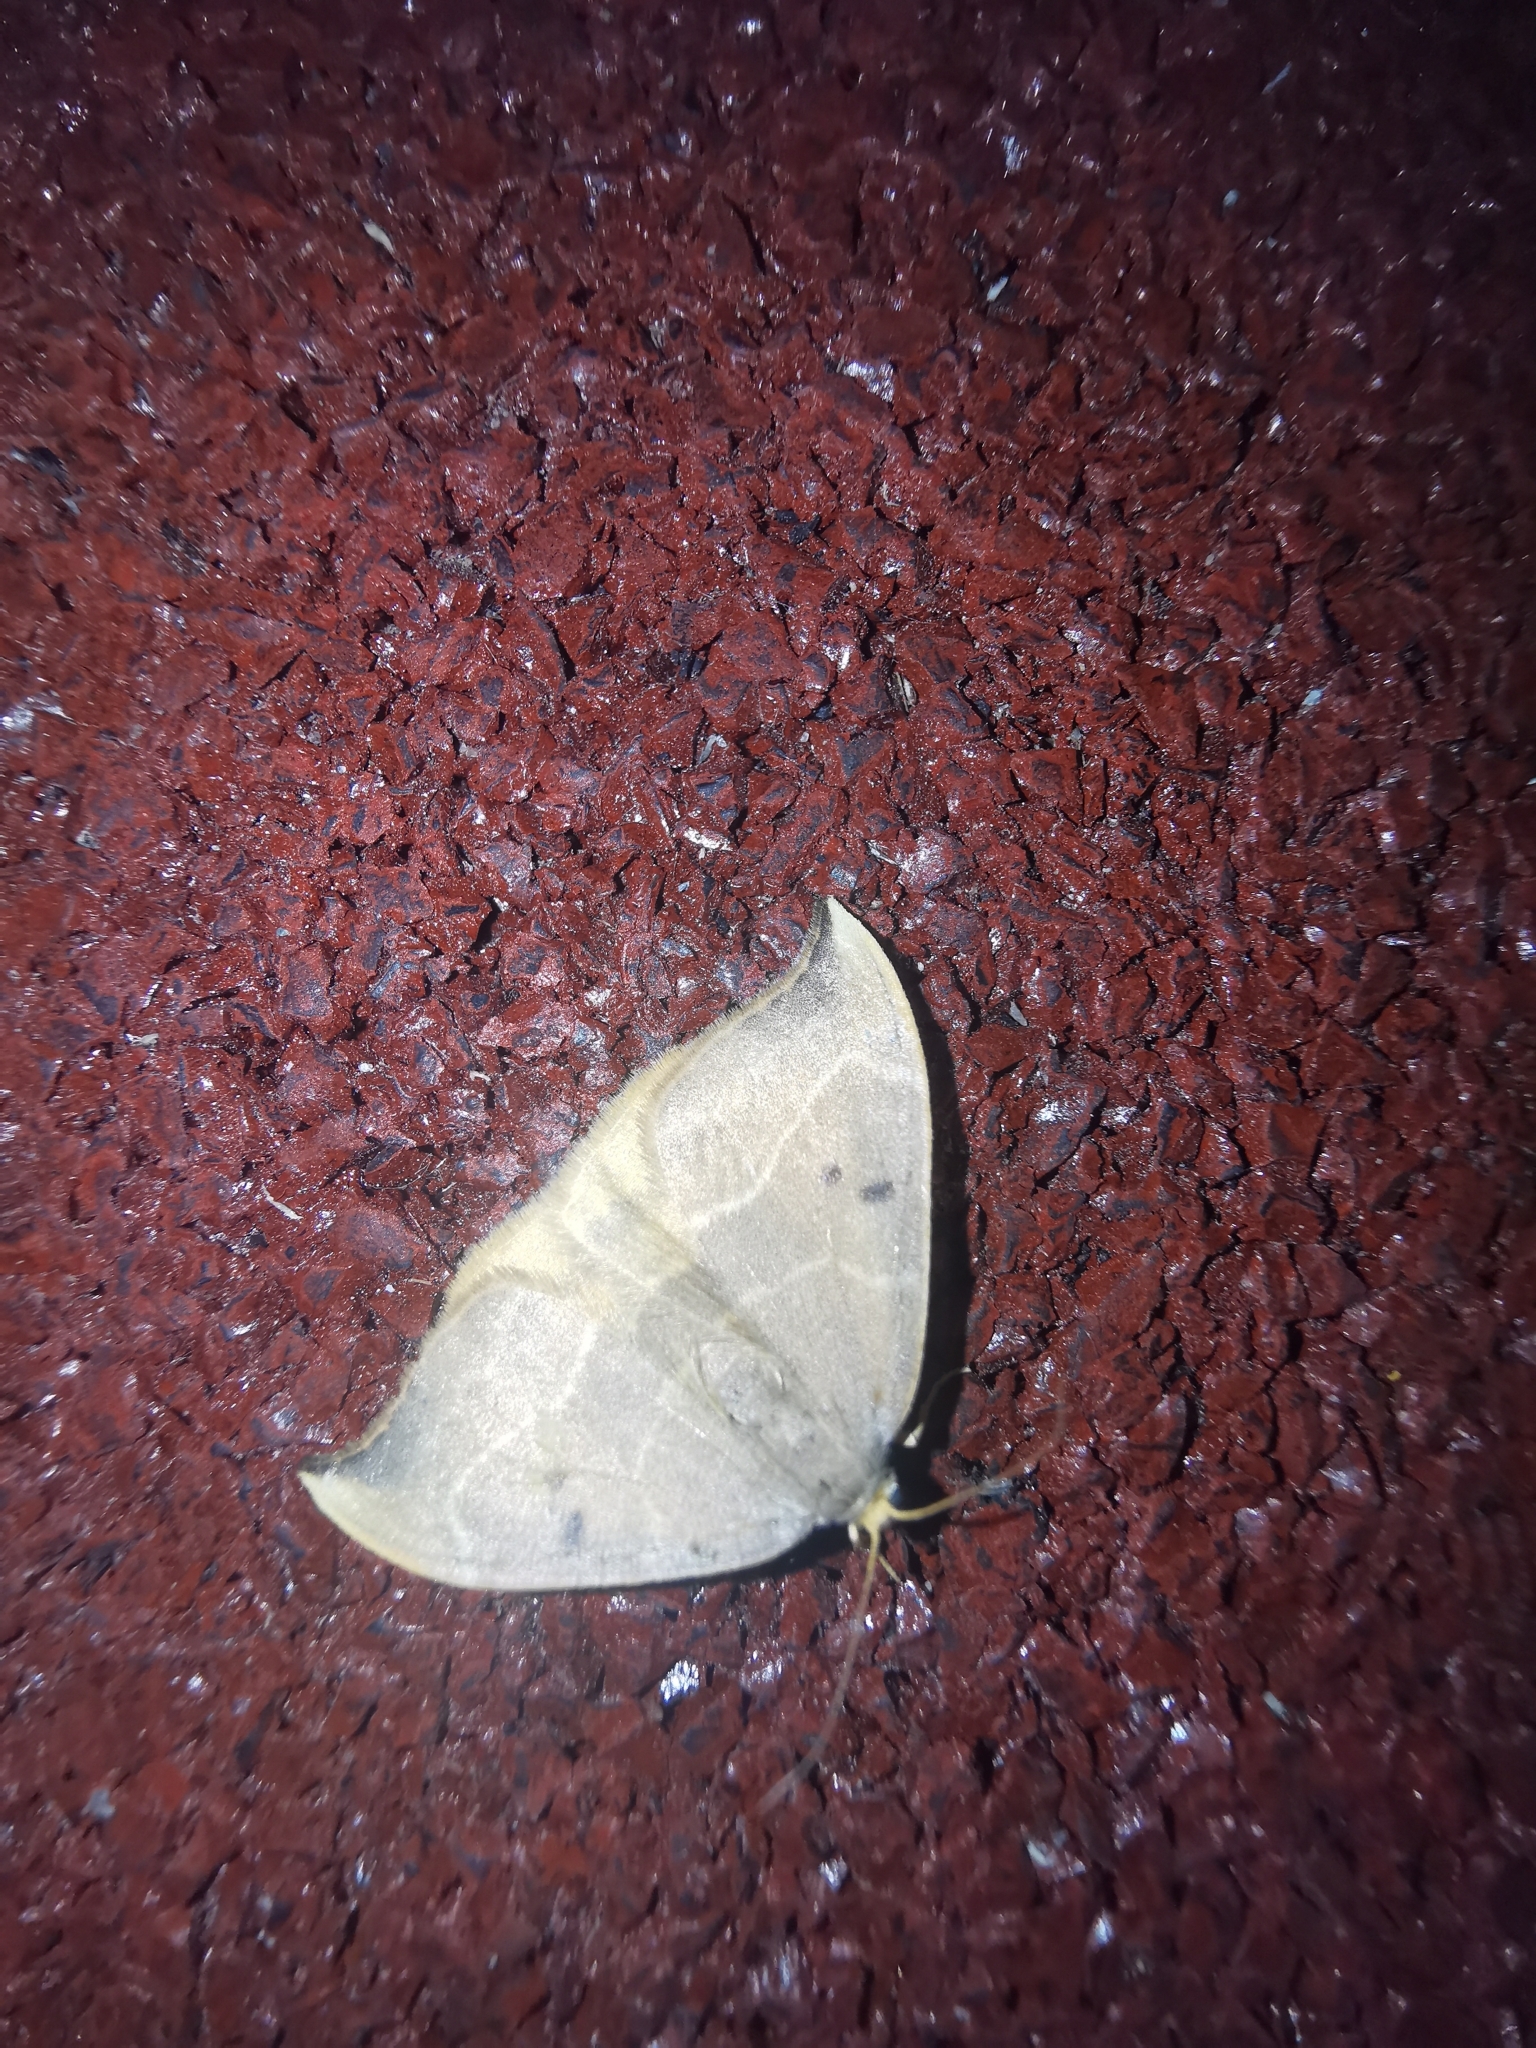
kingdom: Animalia
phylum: Arthropoda
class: Insecta
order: Lepidoptera
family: Drepanidae
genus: Watsonalla
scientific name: Watsonalla binaria
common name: Oak hook-tip
